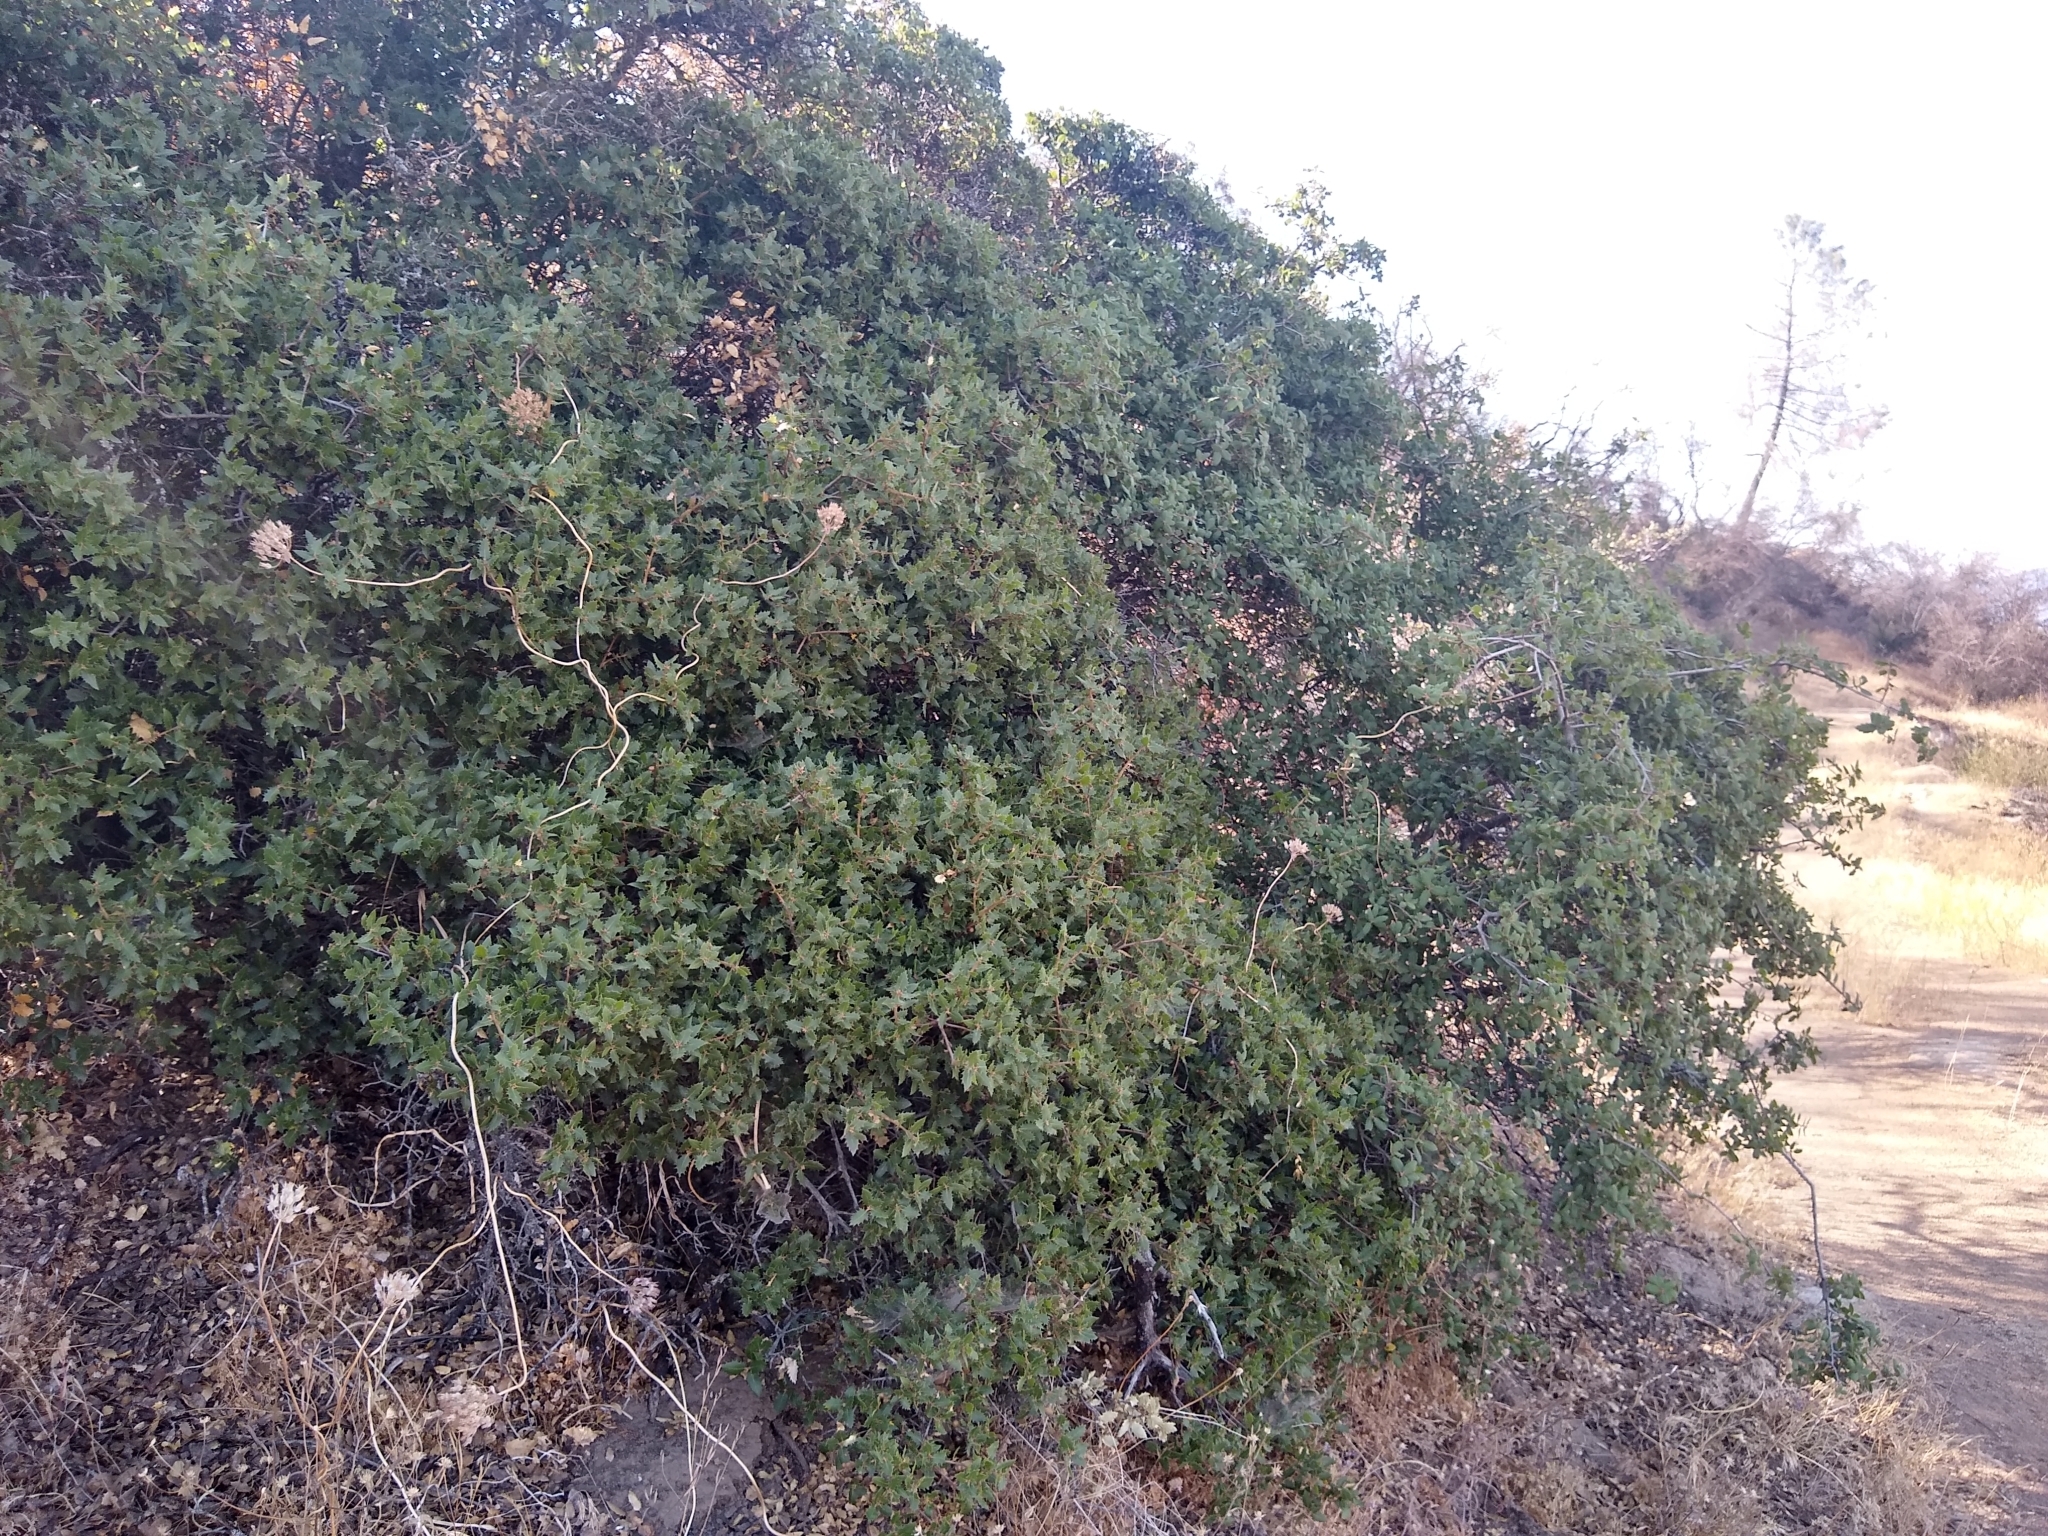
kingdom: Plantae
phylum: Tracheophyta
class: Magnoliopsida
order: Fagales
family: Fagaceae
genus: Quercus
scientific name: Quercus wislizeni
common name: Interior live oak
